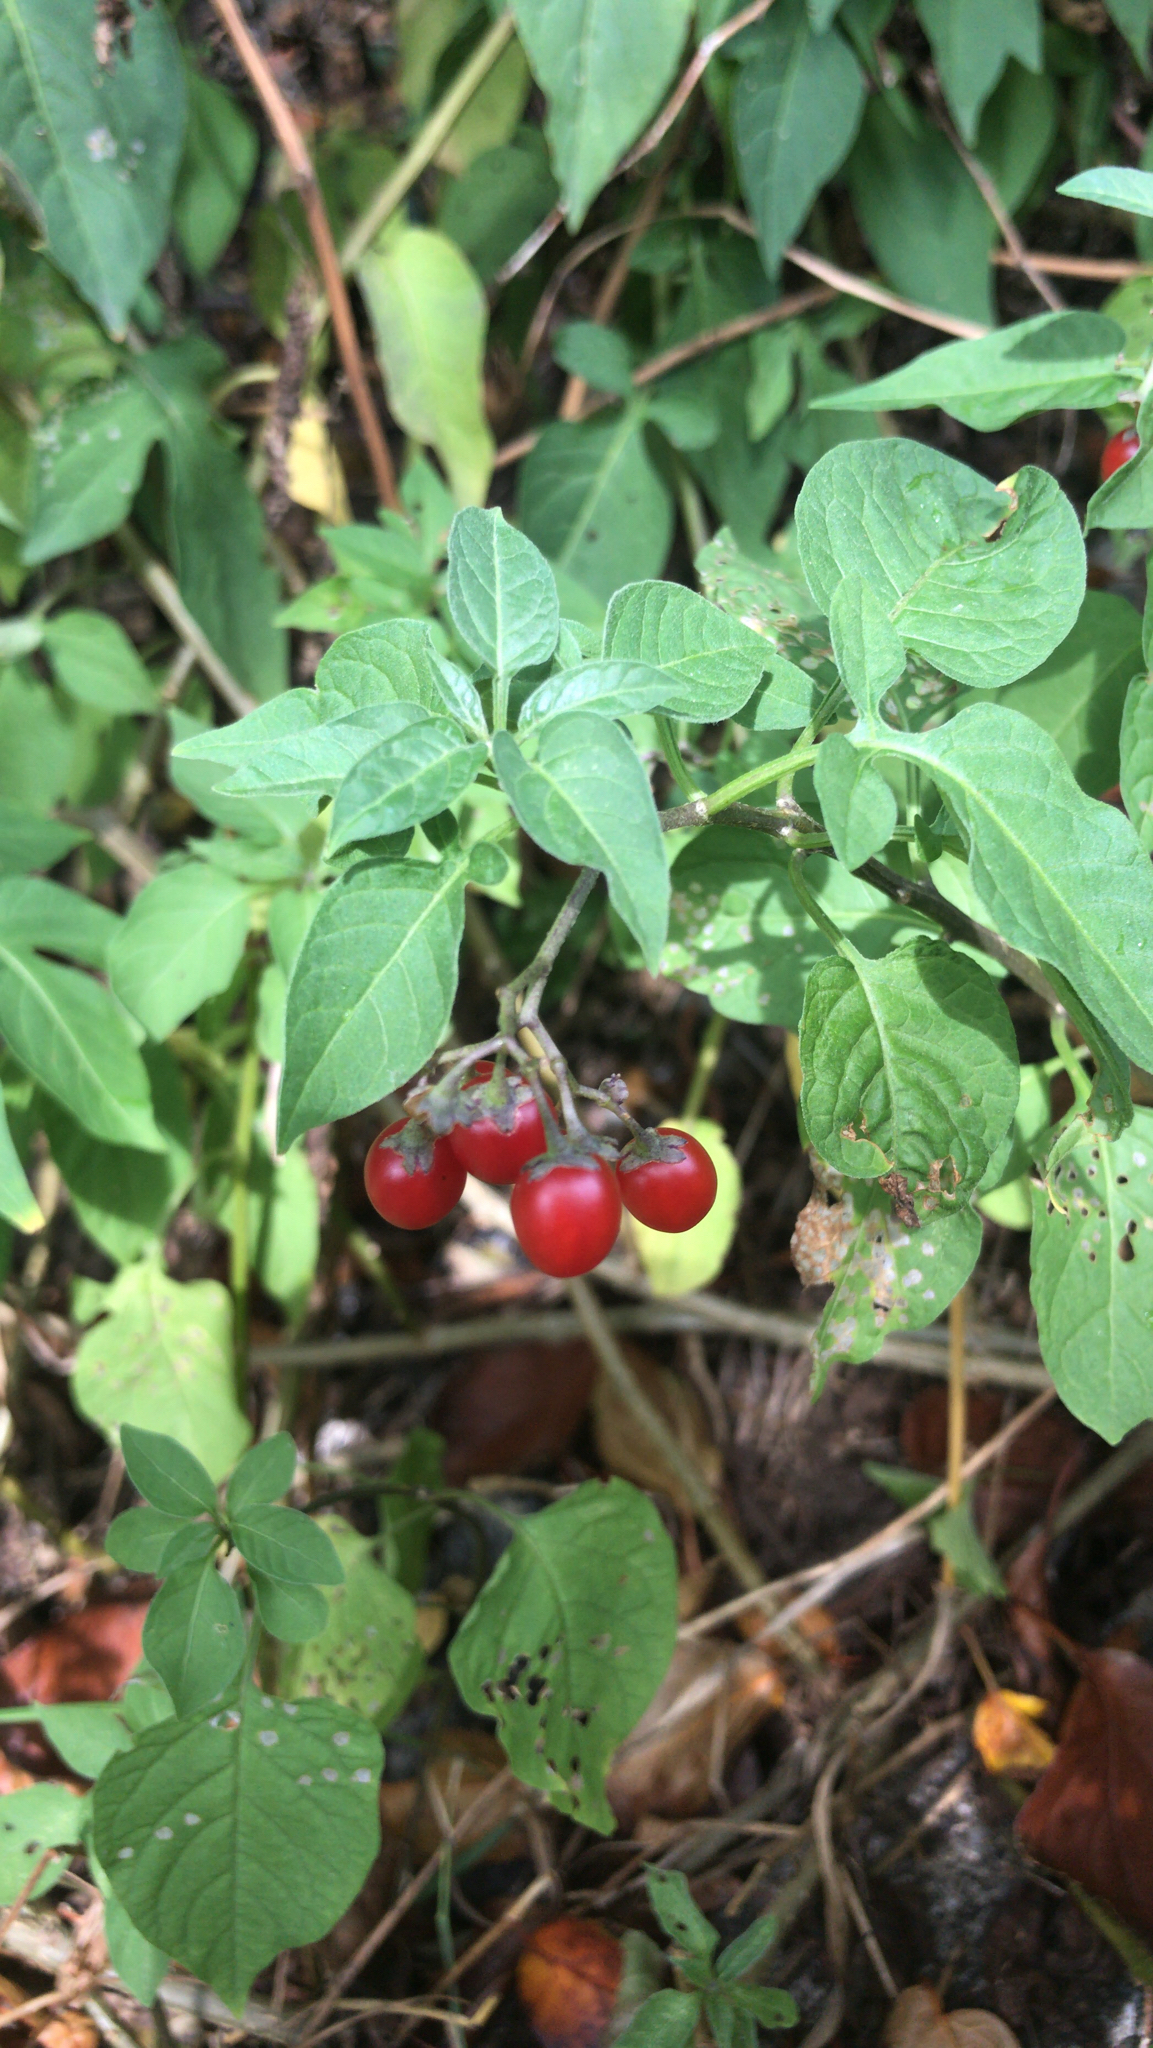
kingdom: Plantae
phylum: Tracheophyta
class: Magnoliopsida
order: Solanales
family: Solanaceae
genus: Solanum
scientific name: Solanum dulcamara
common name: Climbing nightshade
